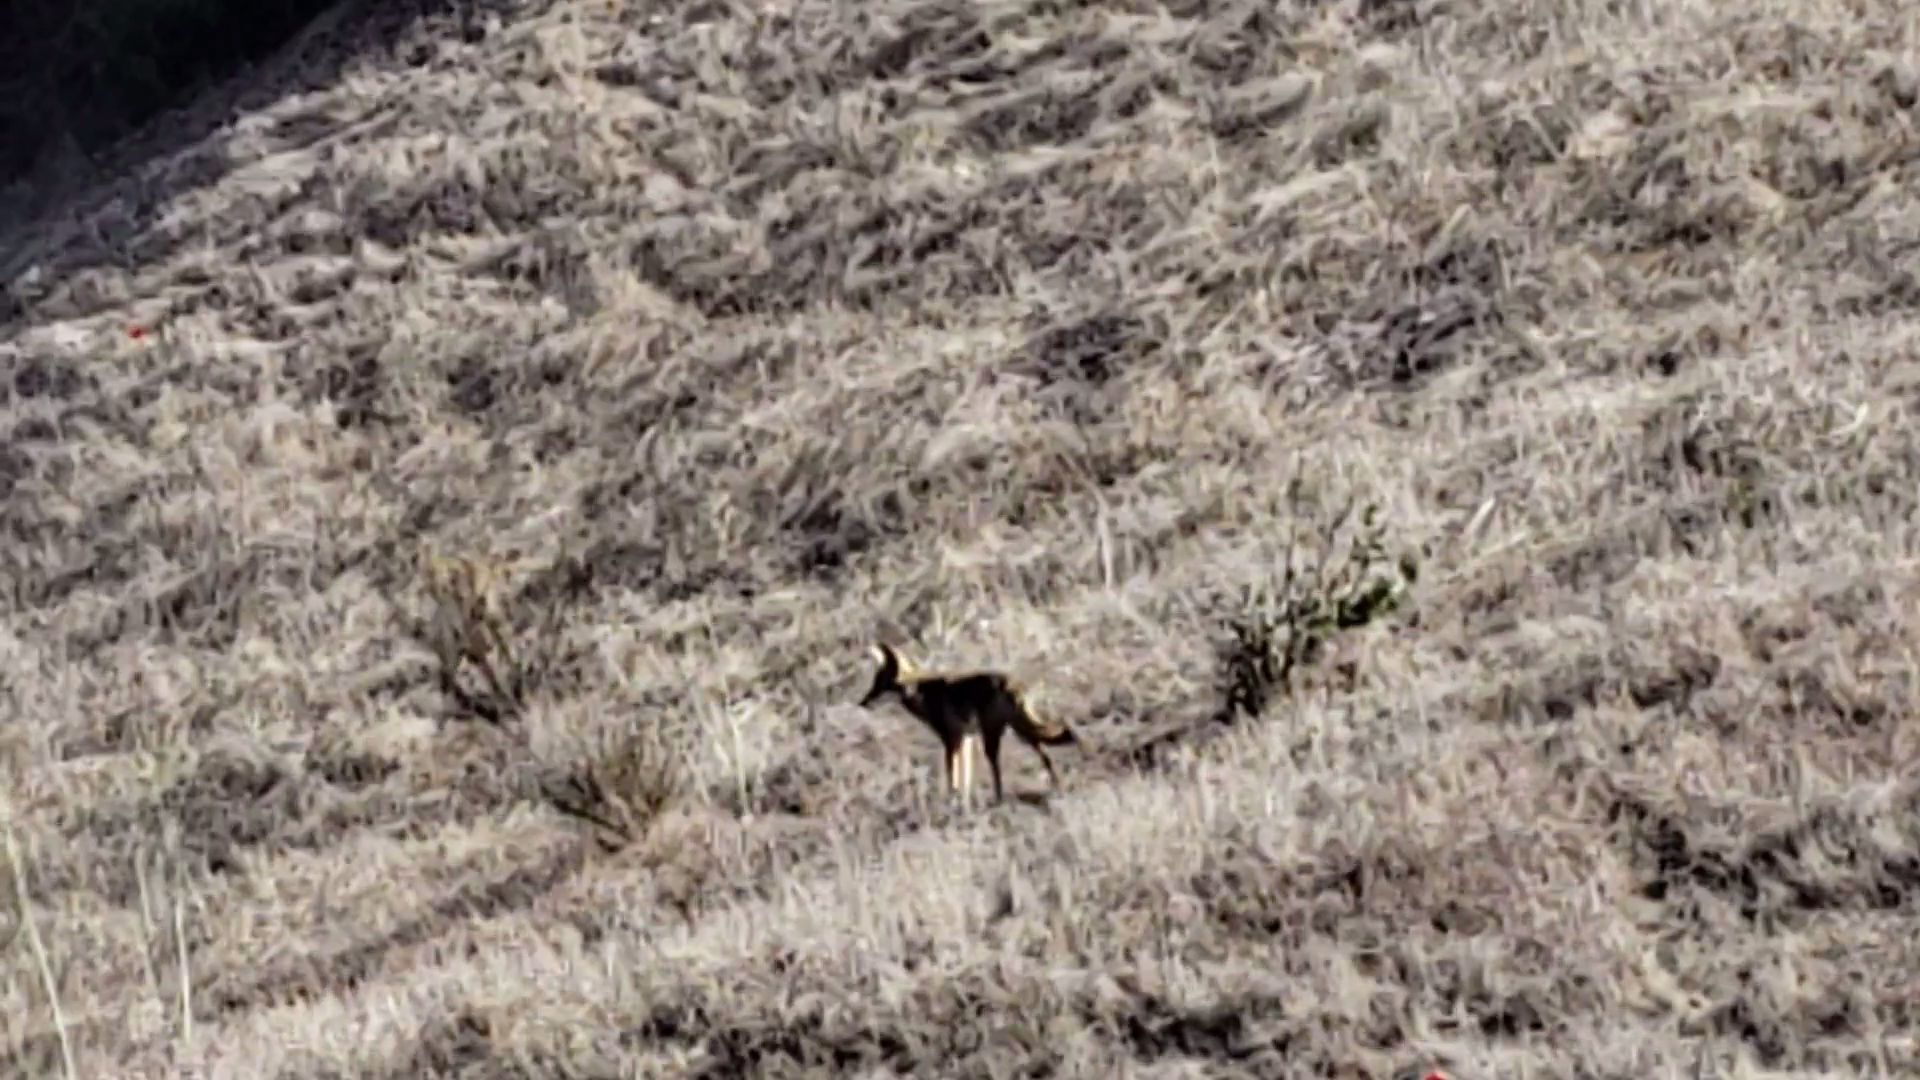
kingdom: Animalia
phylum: Chordata
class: Mammalia
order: Carnivora
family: Canidae
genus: Canis
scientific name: Canis latrans
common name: Coyote
